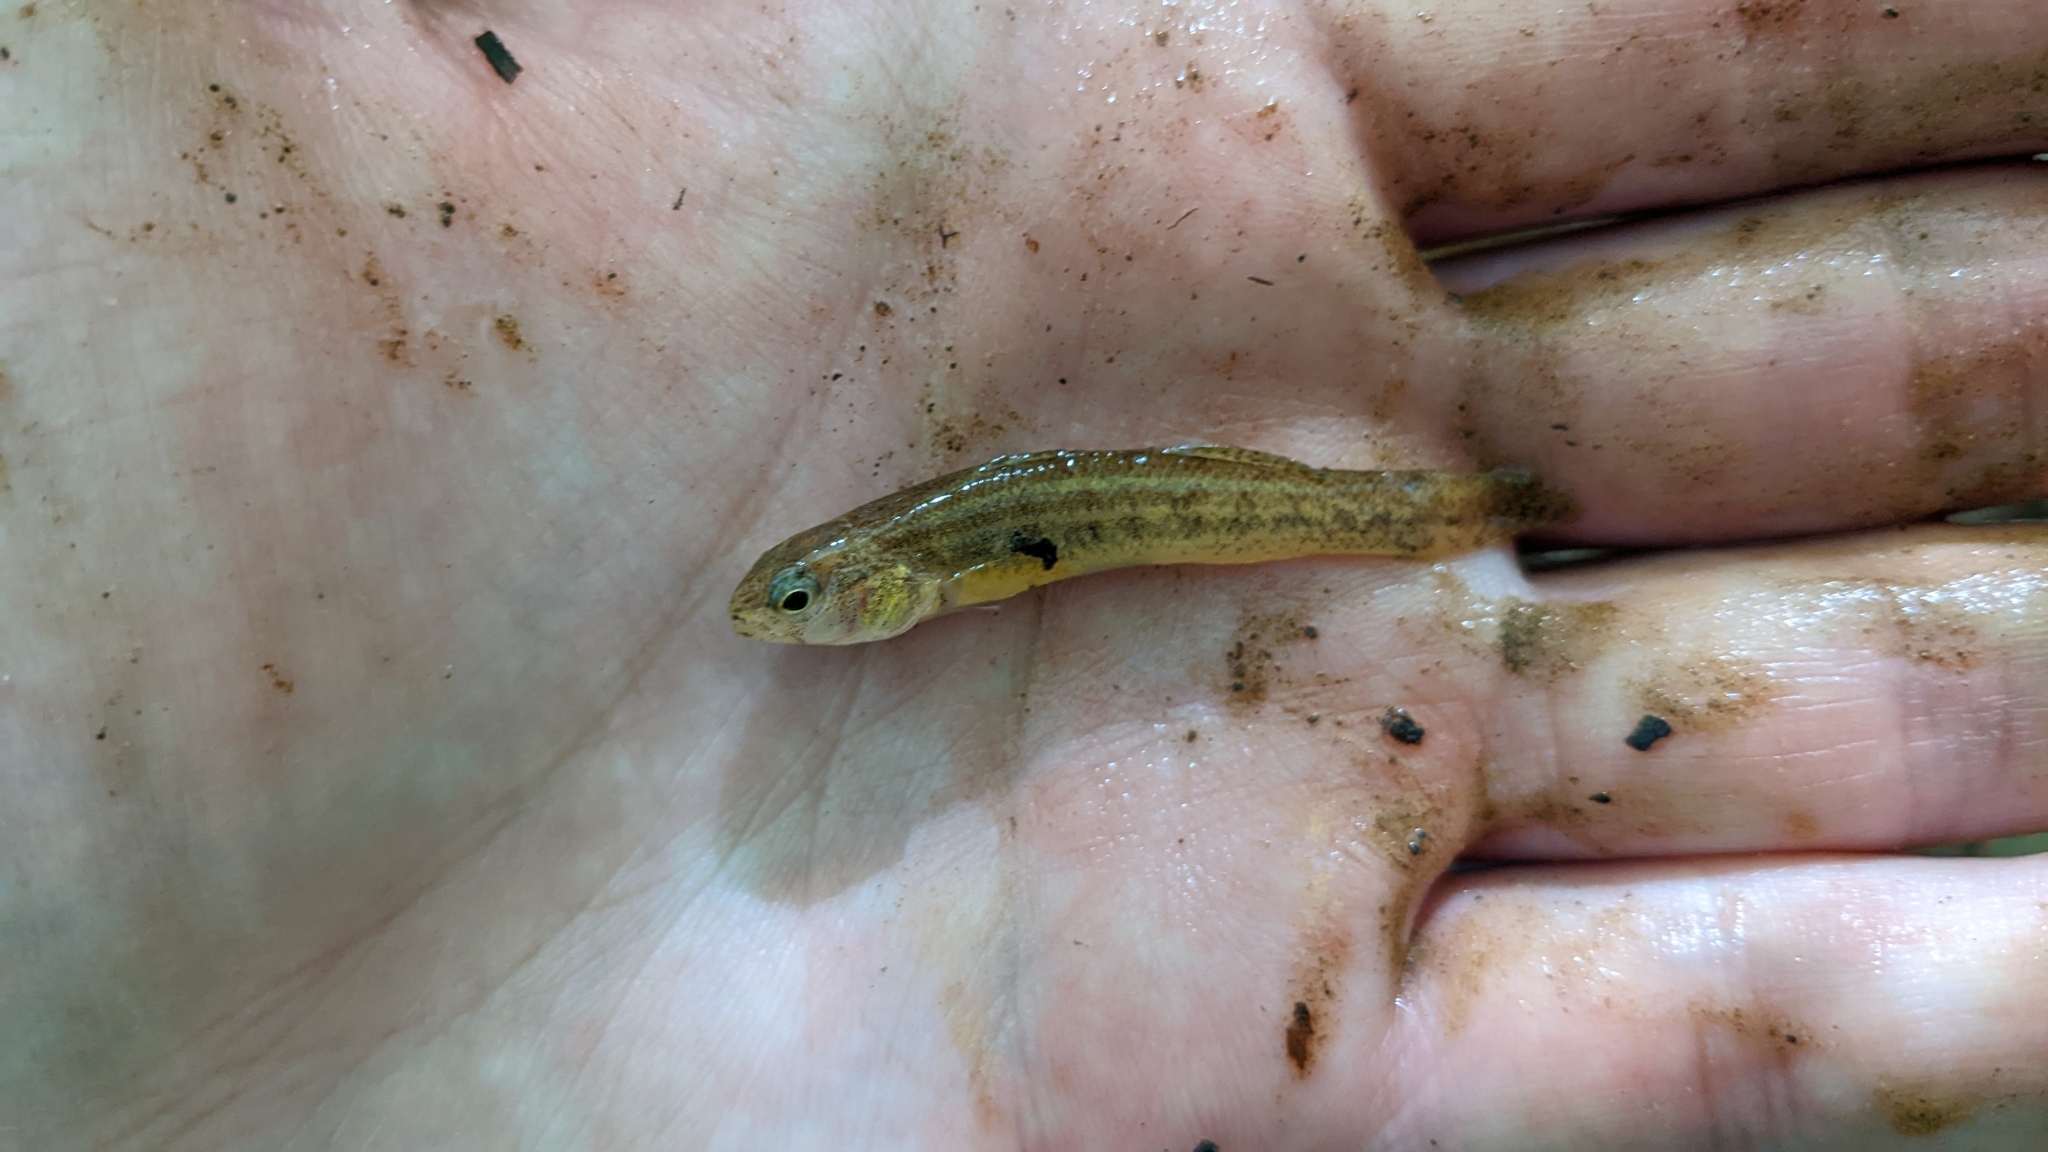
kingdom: Animalia
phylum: Chordata
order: Perciformes
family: Percidae
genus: Etheostoma
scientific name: Etheostoma parvipinne
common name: Goldstripe darter
